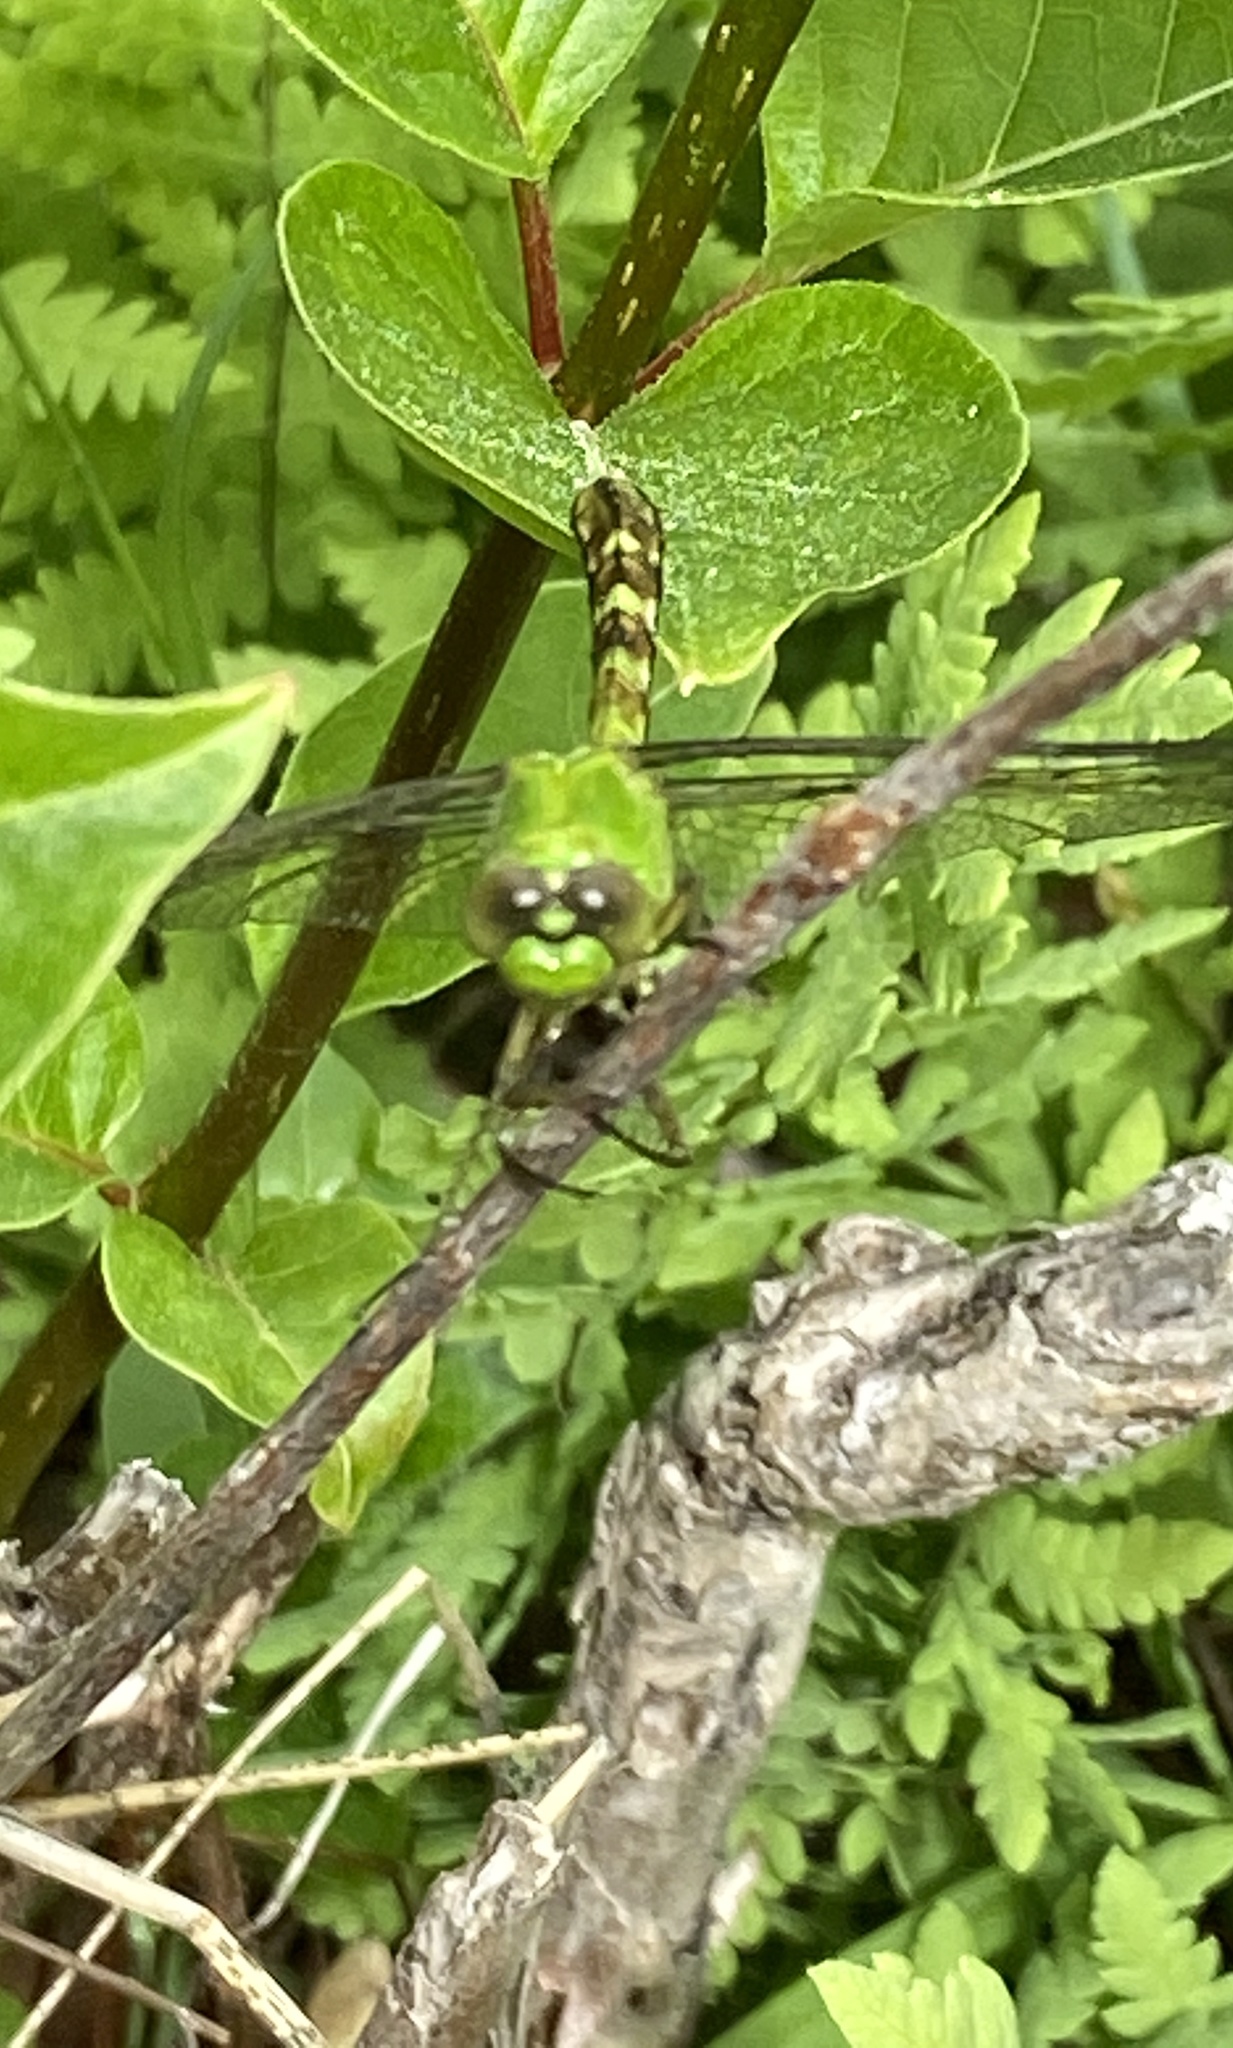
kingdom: Animalia
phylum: Arthropoda
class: Insecta
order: Odonata
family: Libellulidae
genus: Erythemis
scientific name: Erythemis simplicicollis
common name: Eastern pondhawk
